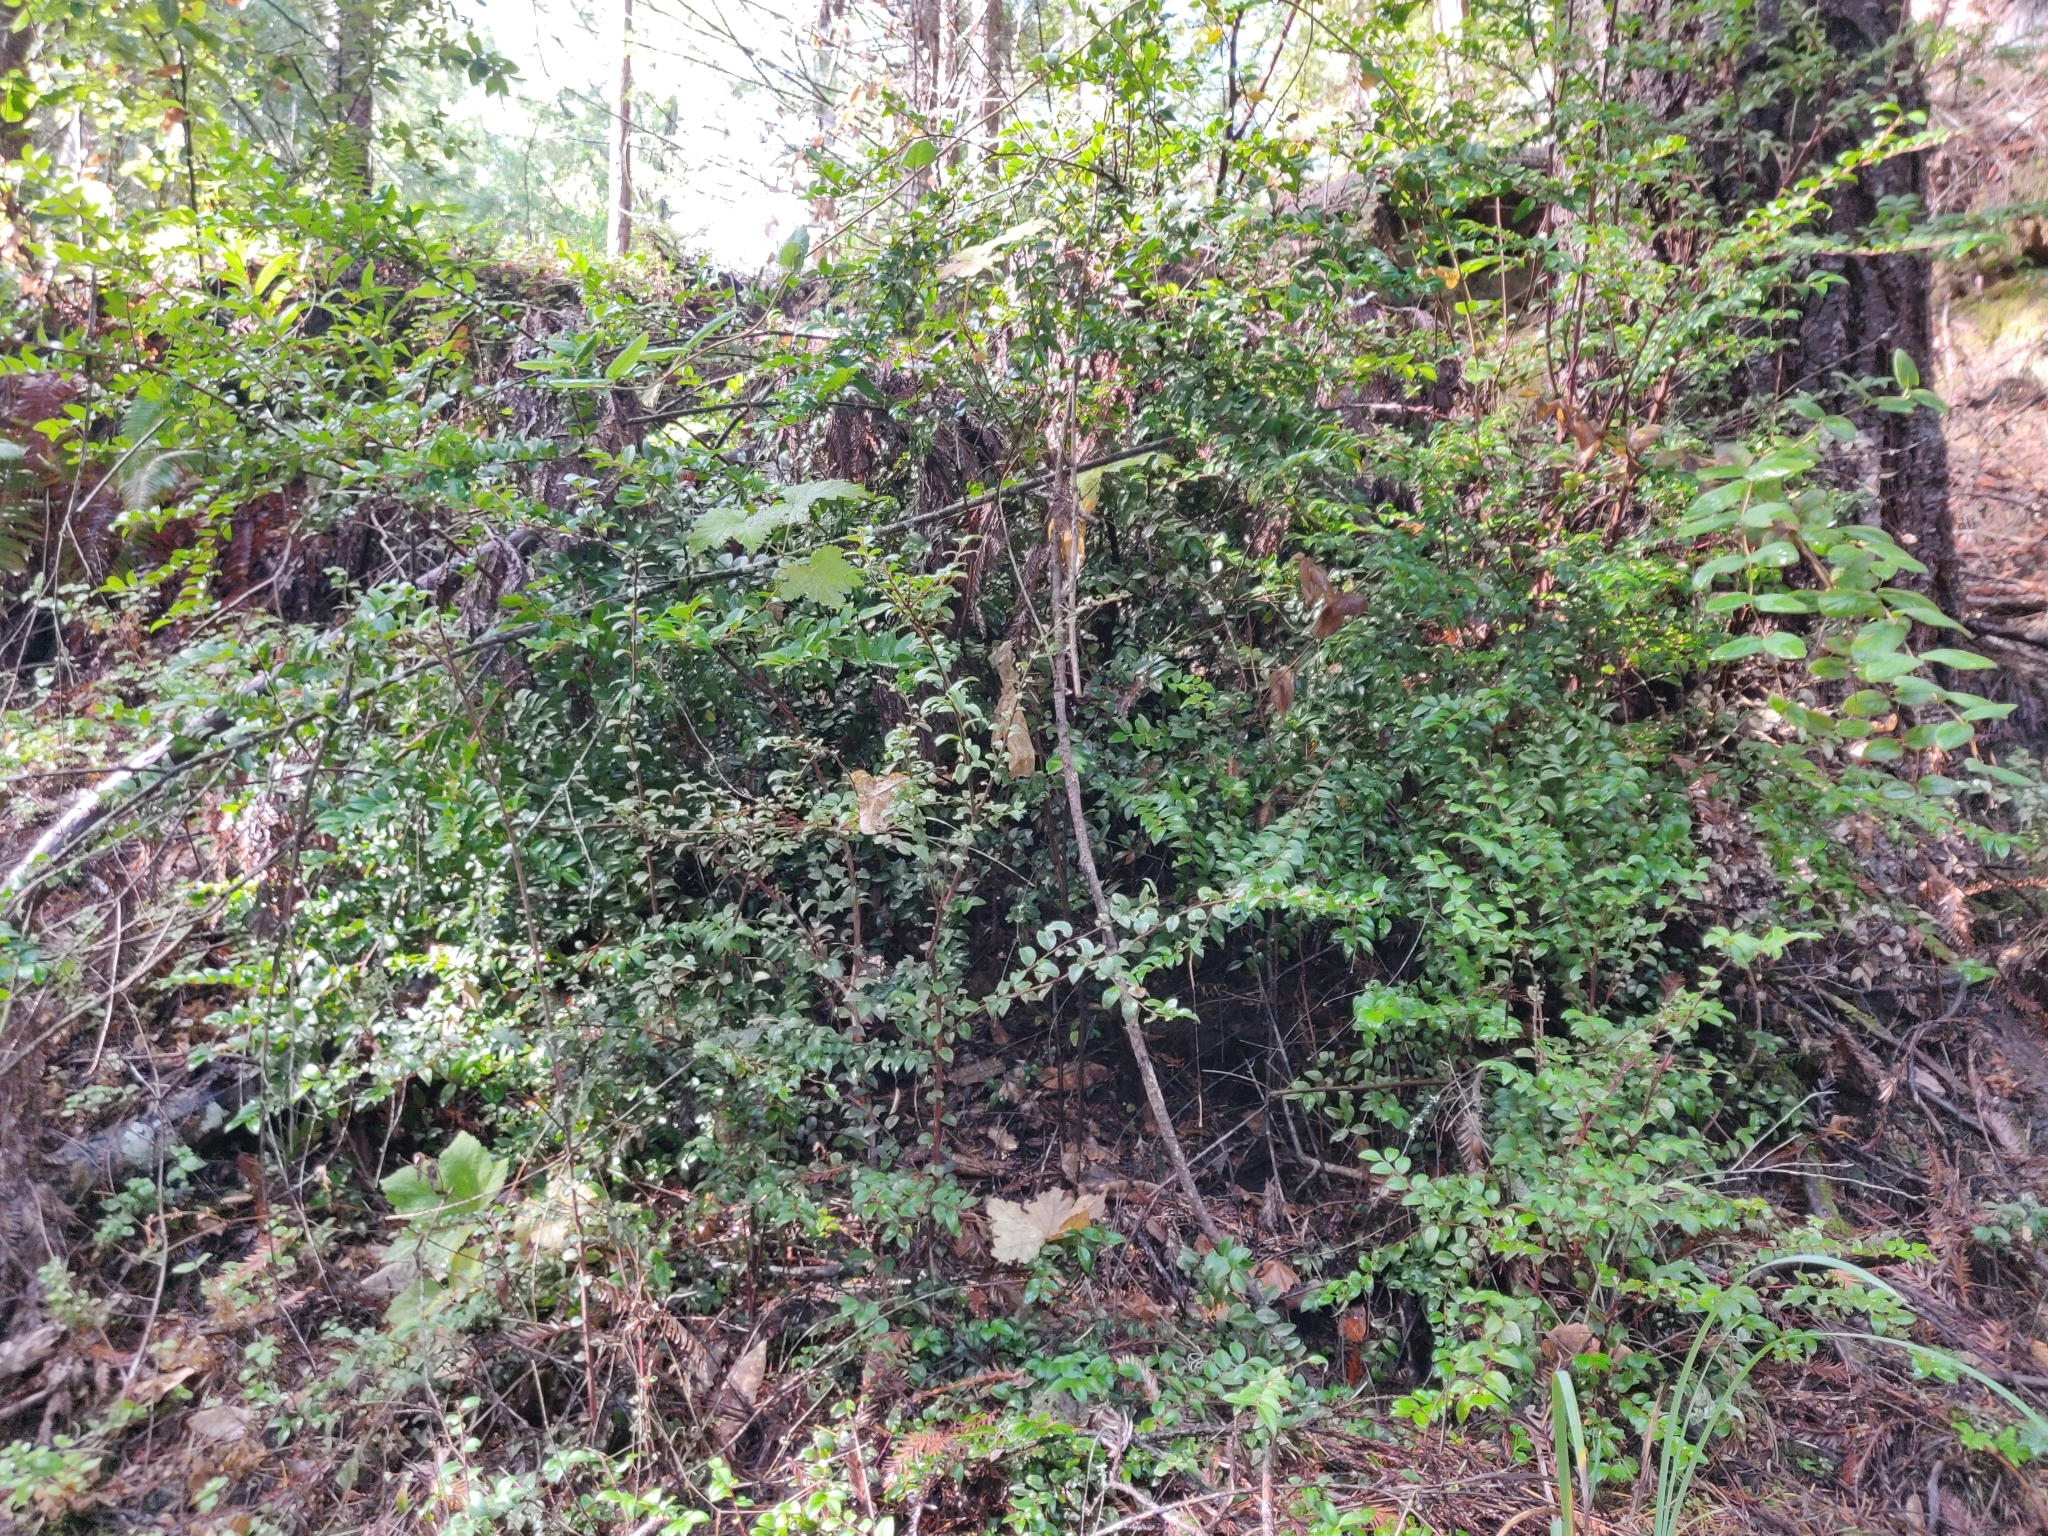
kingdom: Plantae
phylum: Tracheophyta
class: Magnoliopsida
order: Ericales
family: Ericaceae
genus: Vaccinium
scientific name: Vaccinium ovatum
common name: California-huckleberry
